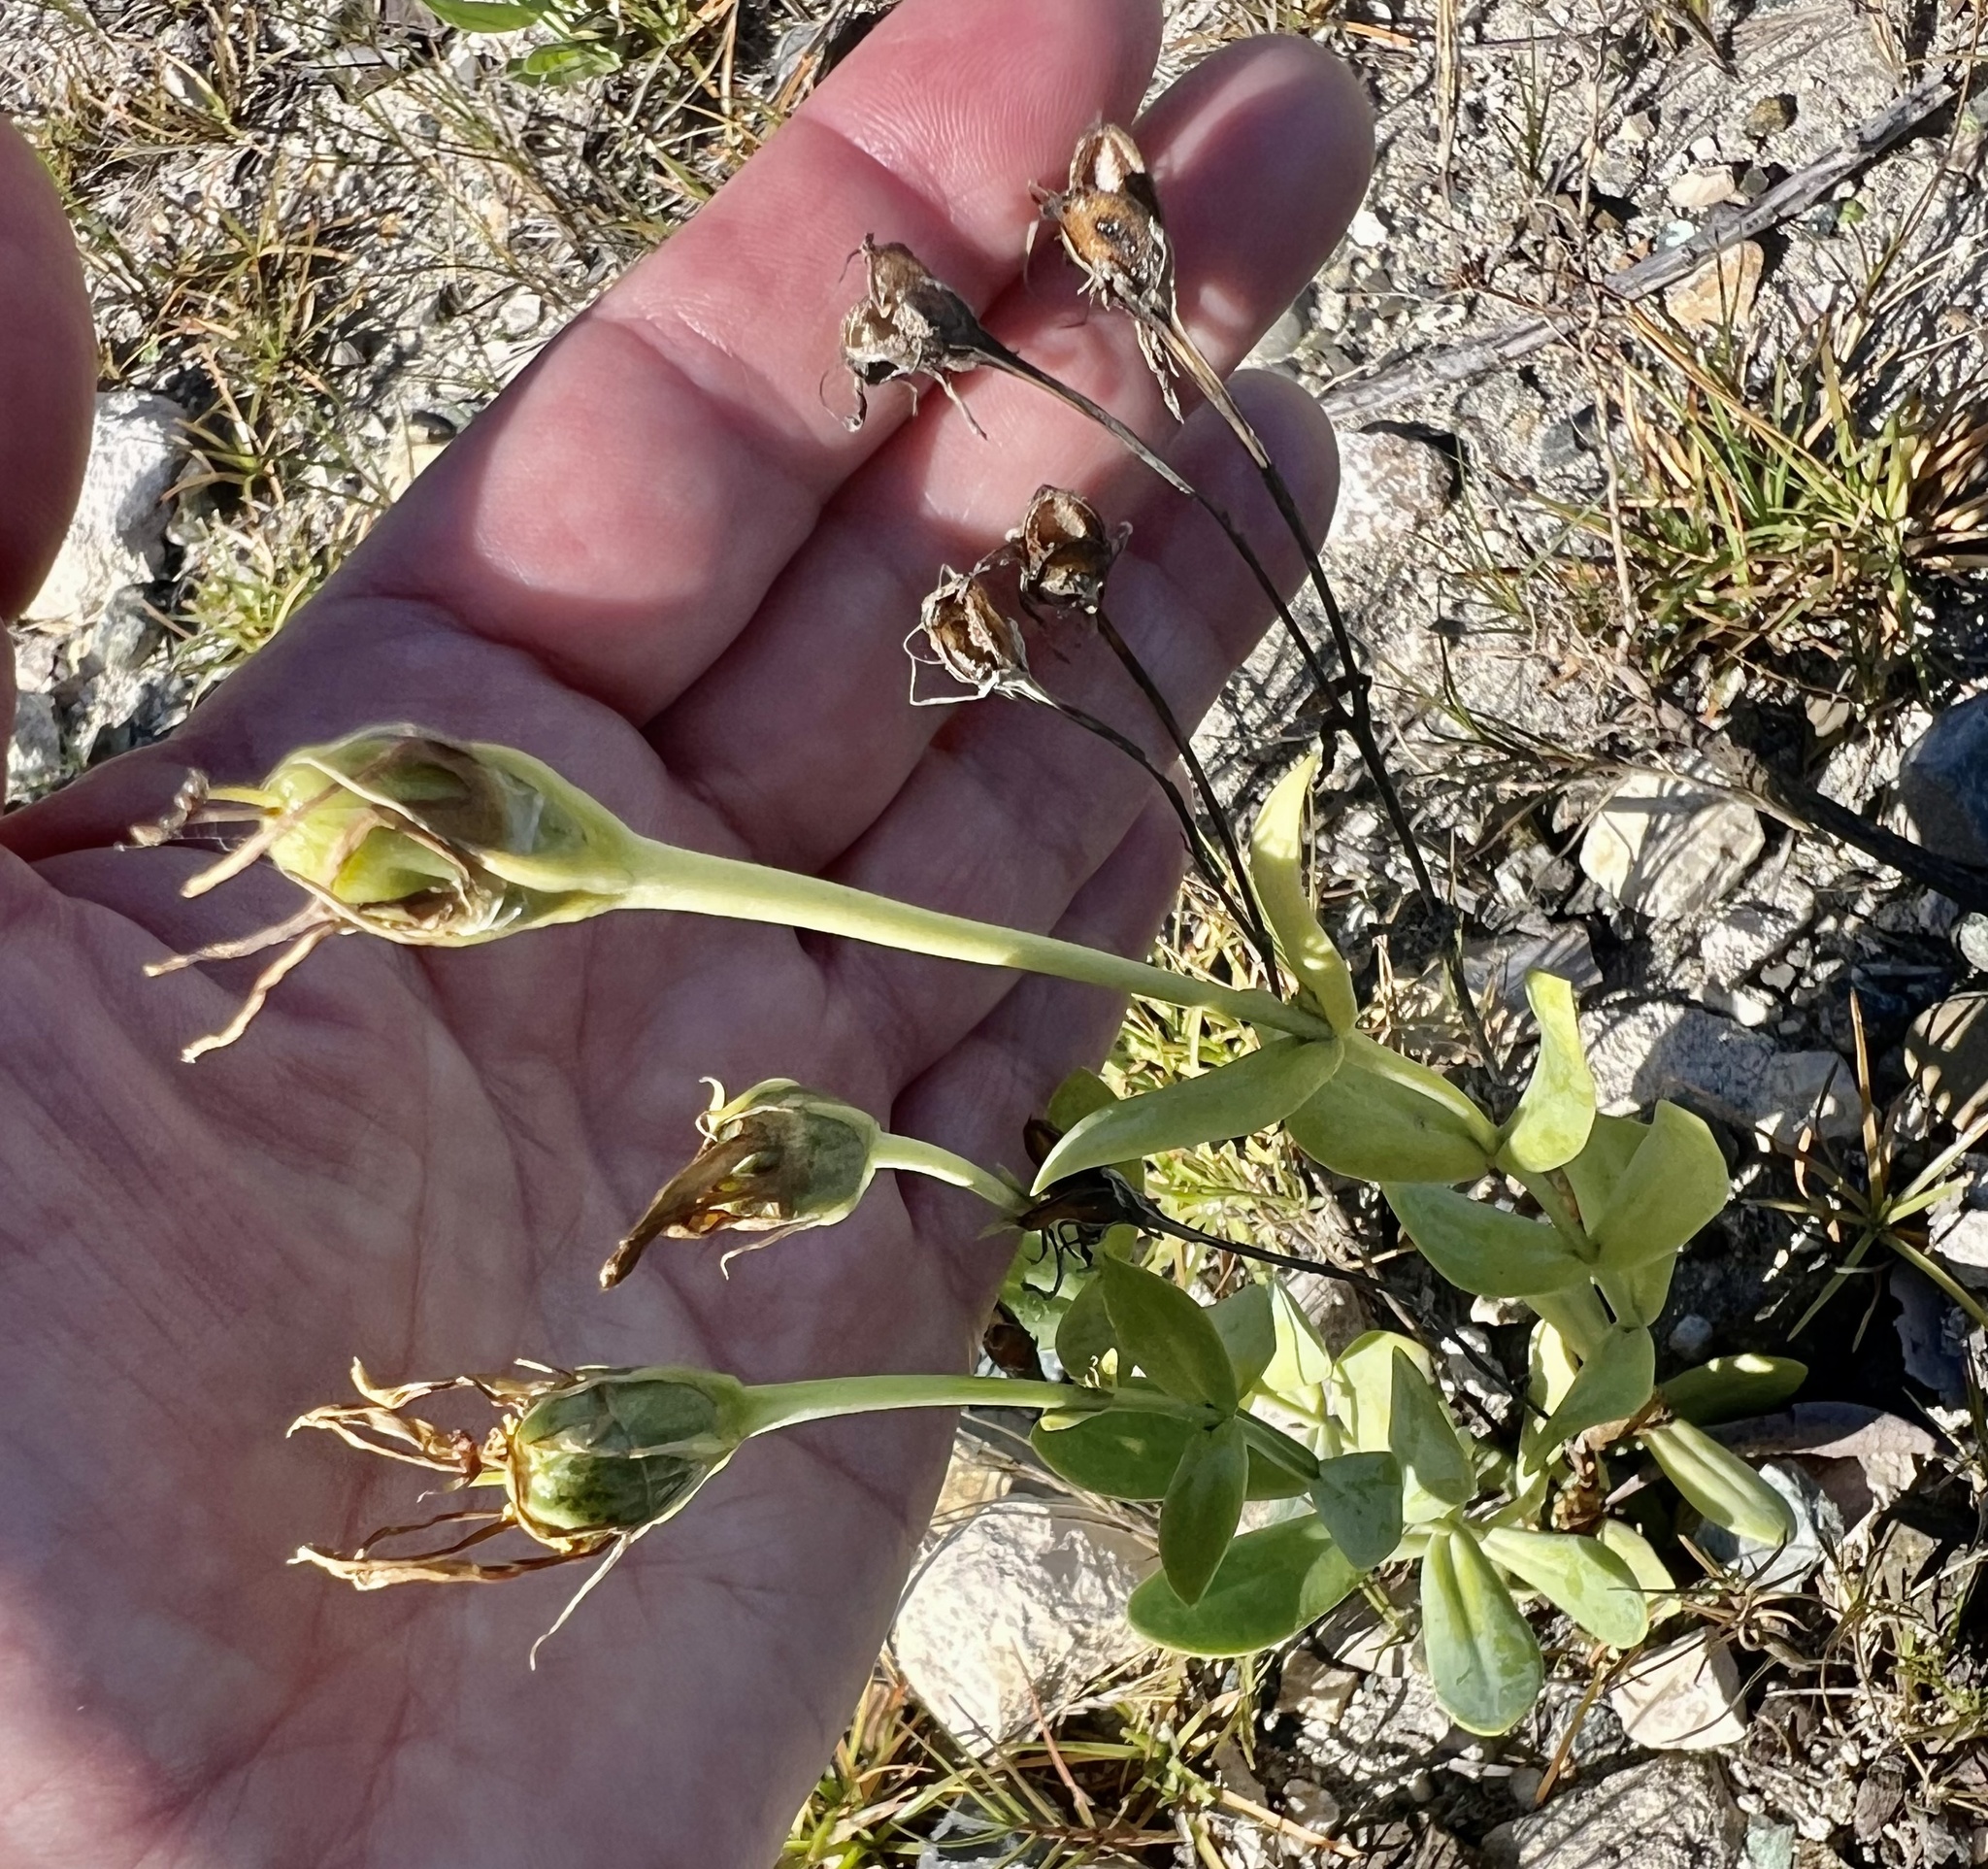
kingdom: Plantae
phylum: Tracheophyta
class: Magnoliopsida
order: Gentianales
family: Gentianaceae
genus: Eustoma
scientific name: Eustoma exaltatum
